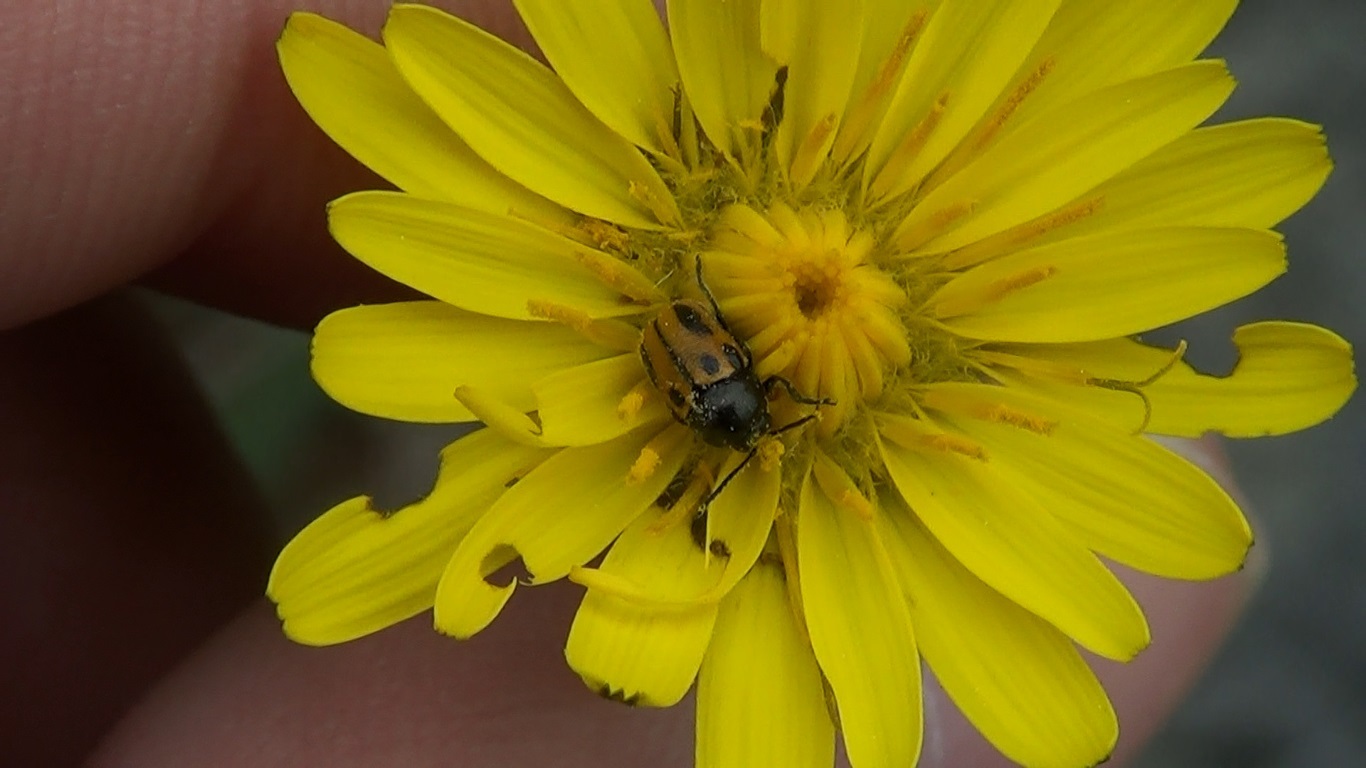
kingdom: Animalia
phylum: Arthropoda
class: Insecta
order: Coleoptera
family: Chrysomelidae
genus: Cryptocephalus
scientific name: Cryptocephalus rugicollis
